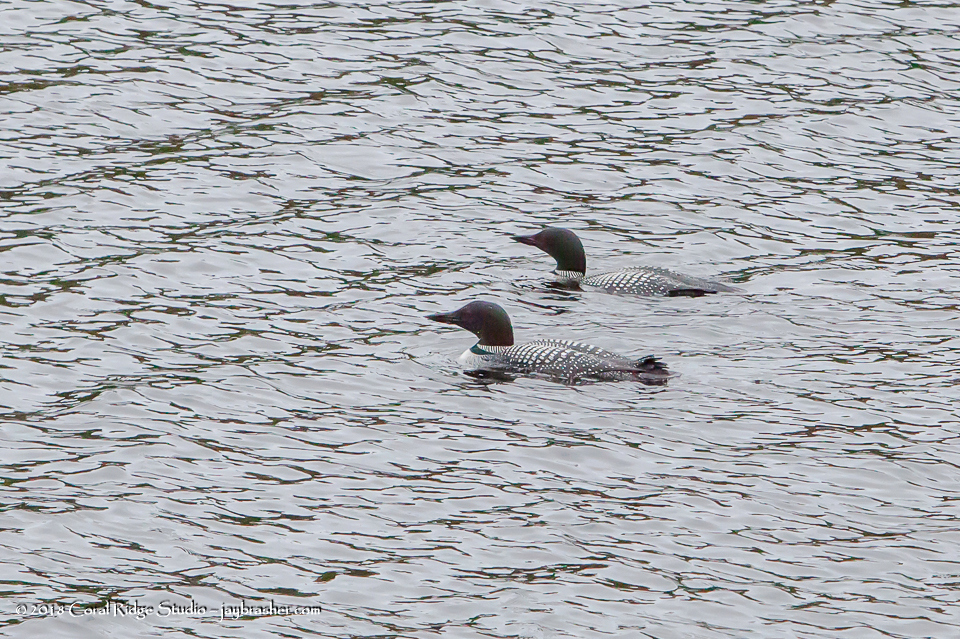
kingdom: Animalia
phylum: Chordata
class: Aves
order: Gaviiformes
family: Gaviidae
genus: Gavia
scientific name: Gavia immer
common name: Common loon
